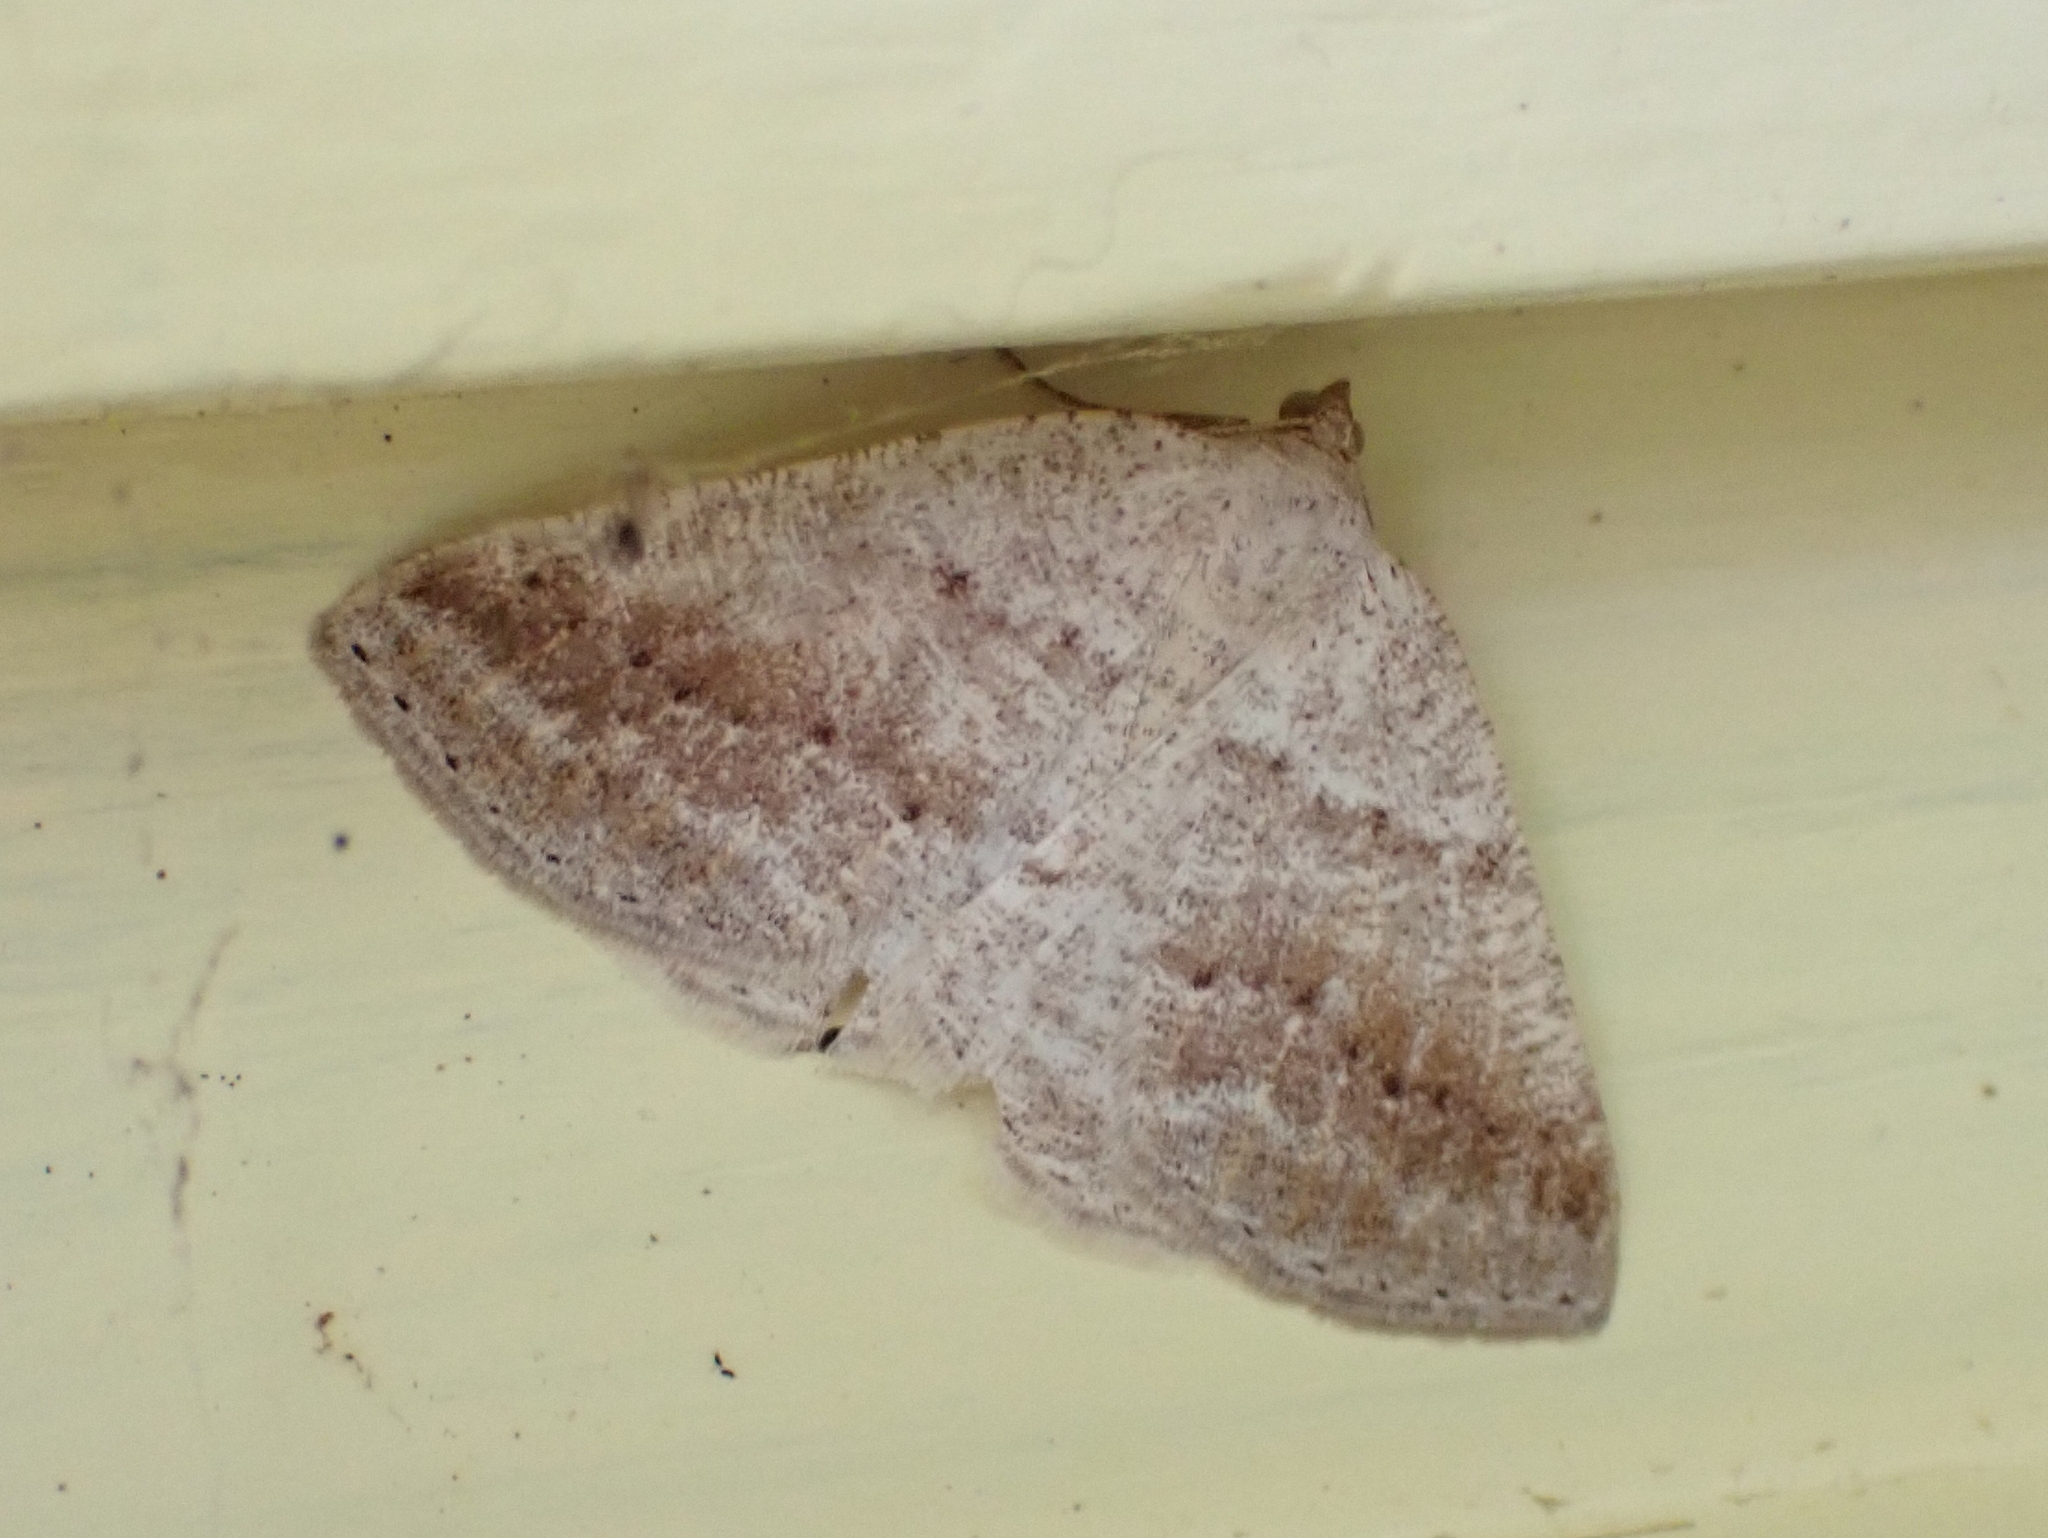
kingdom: Animalia
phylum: Arthropoda
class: Insecta
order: Lepidoptera
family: Geometridae
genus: Tacparia
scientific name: Tacparia detersata
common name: Pale alder moth
